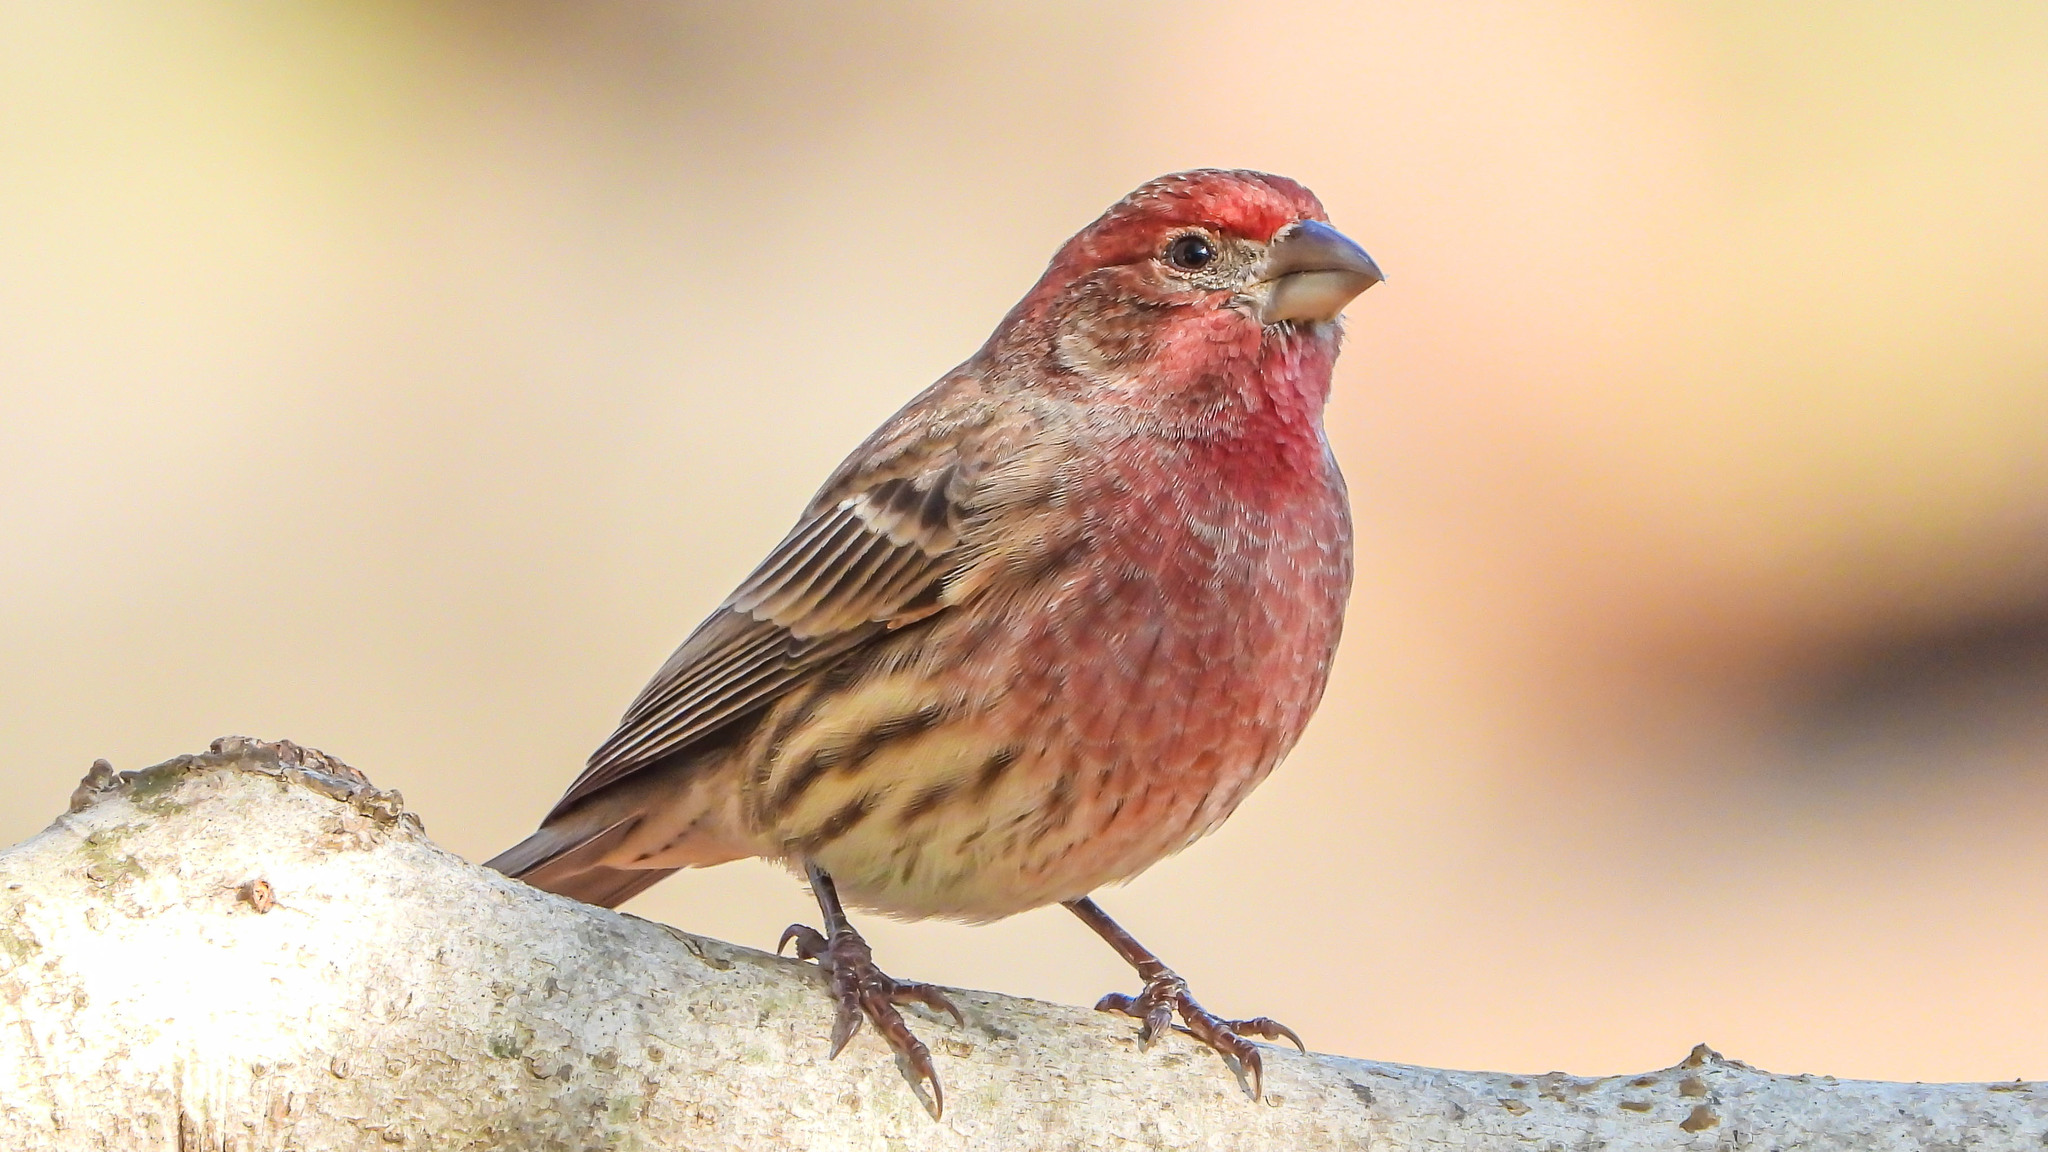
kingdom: Animalia
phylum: Chordata
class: Aves
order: Passeriformes
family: Fringillidae
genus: Haemorhous
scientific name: Haemorhous mexicanus
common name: House finch
